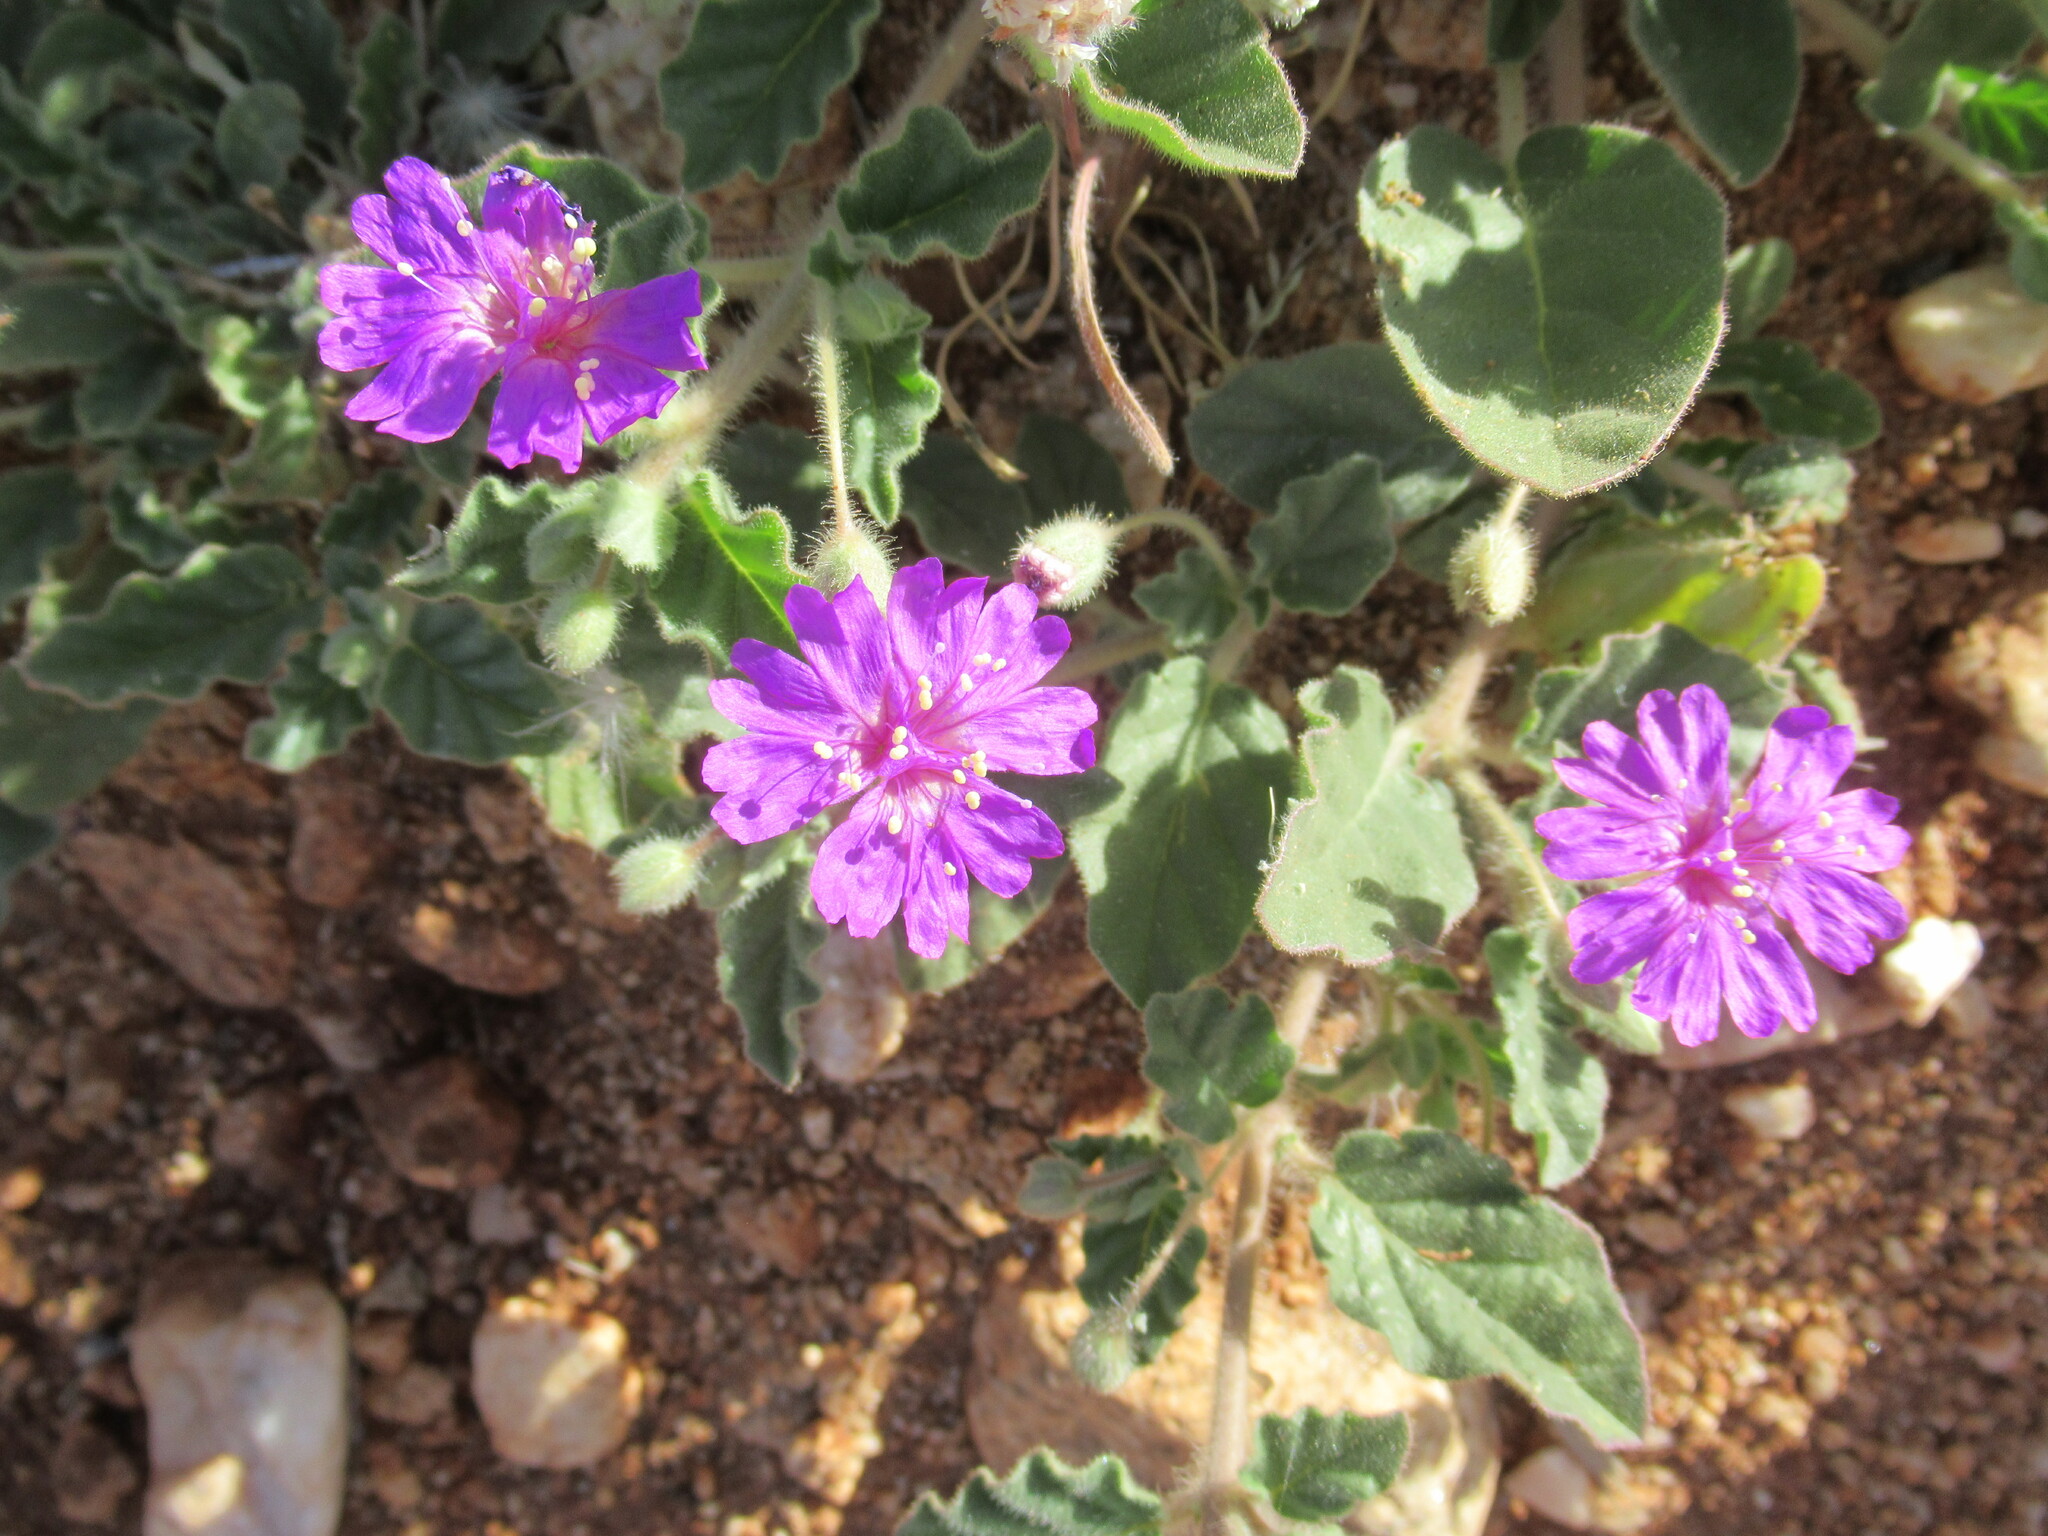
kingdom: Plantae
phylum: Tracheophyta
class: Magnoliopsida
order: Caryophyllales
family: Nyctaginaceae
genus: Allionia
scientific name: Allionia incarnata
